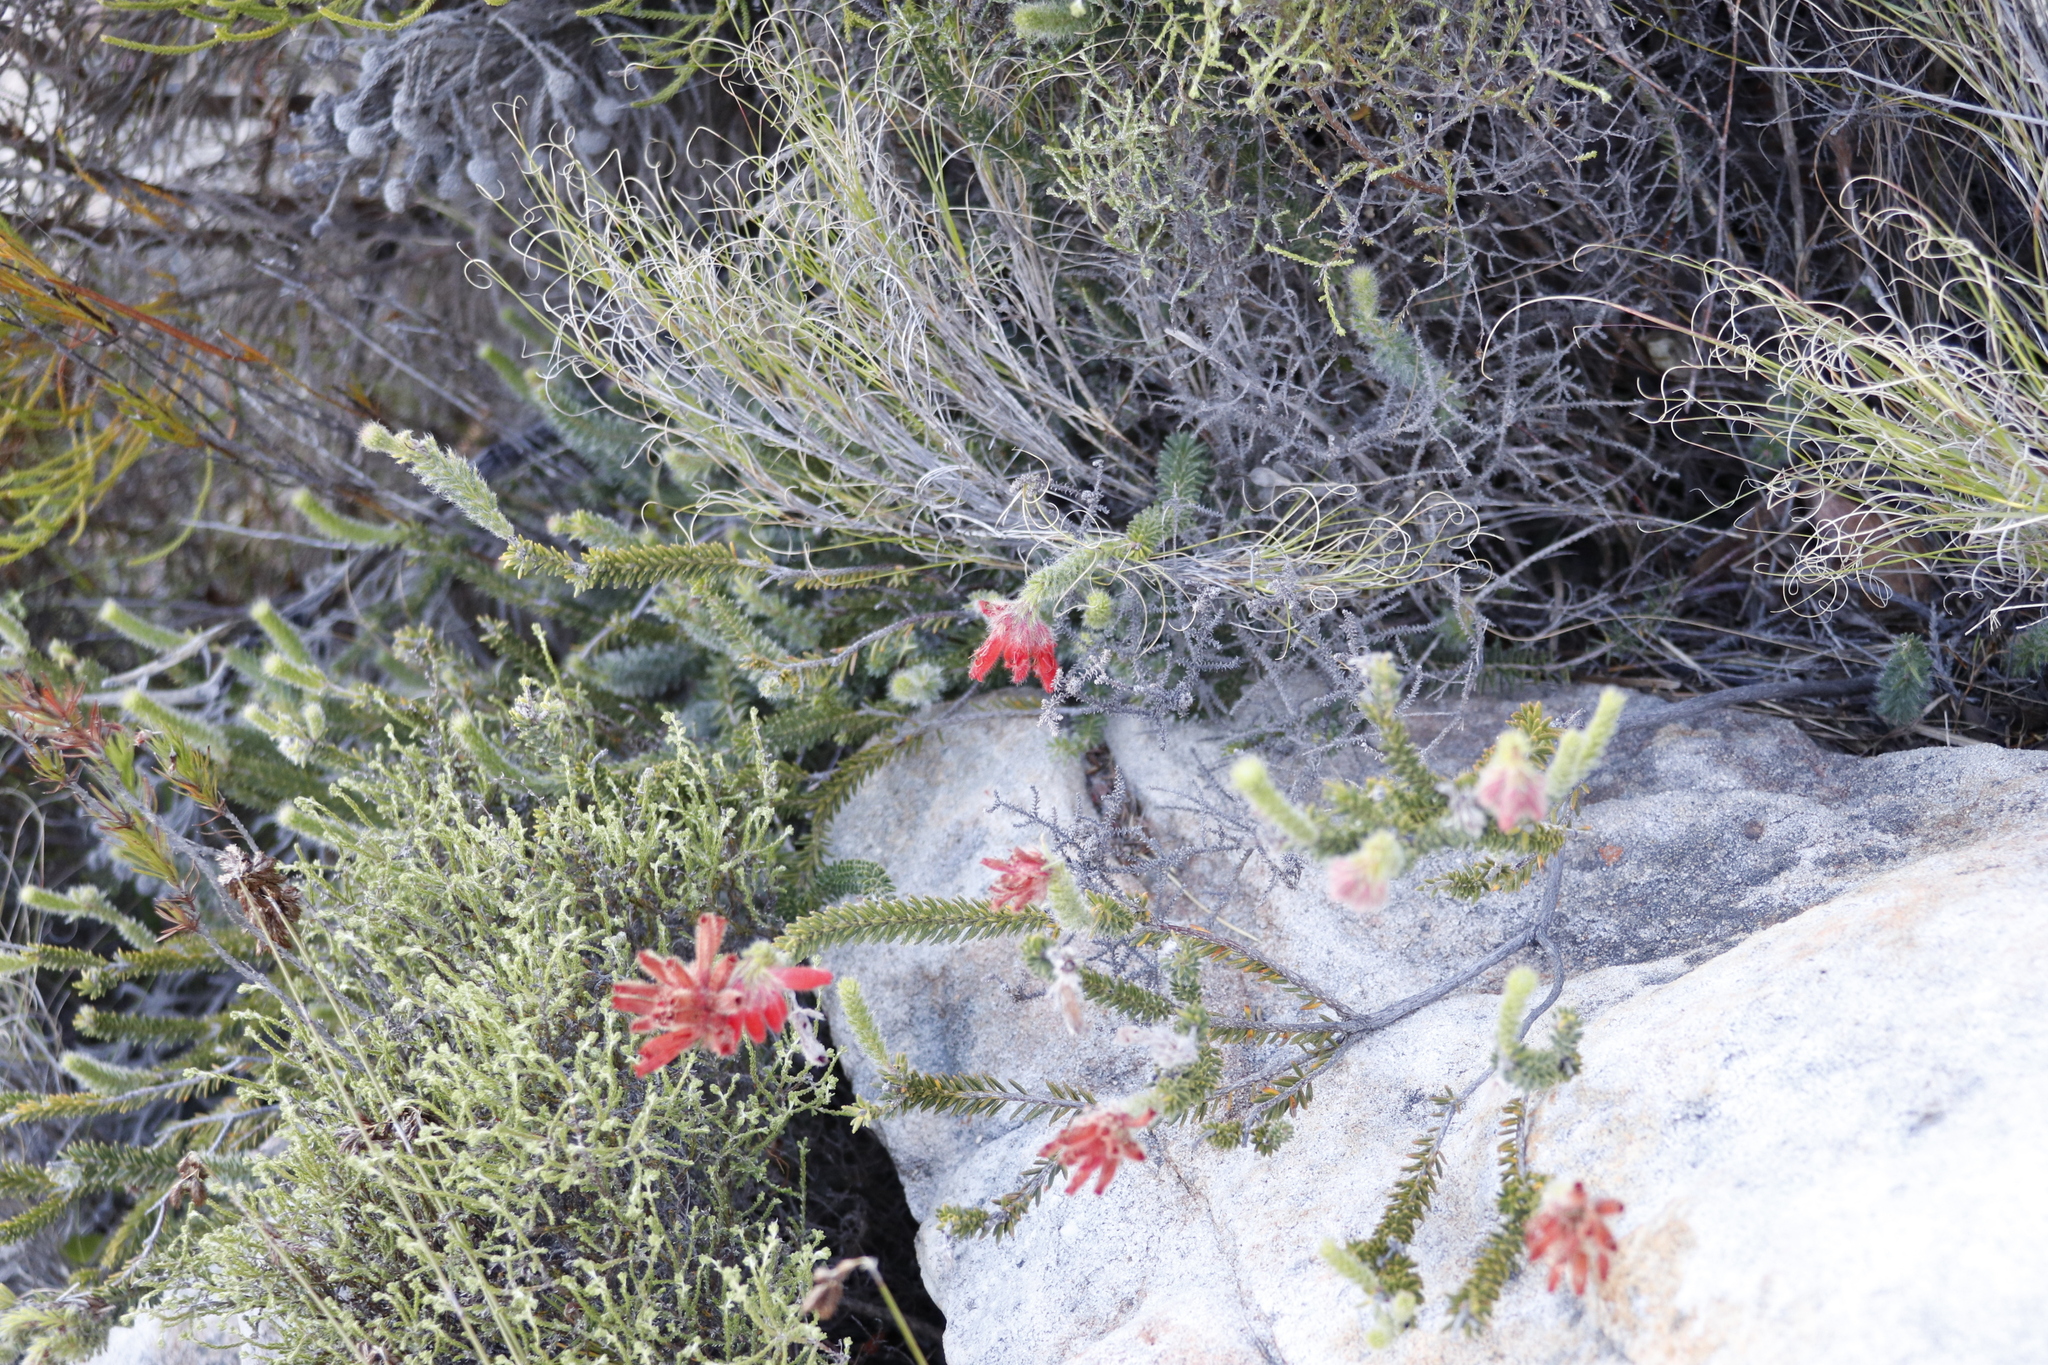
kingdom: Plantae
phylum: Tracheophyta
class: Magnoliopsida
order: Ericales
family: Ericaceae
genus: Erica
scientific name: Erica cerinthoides
